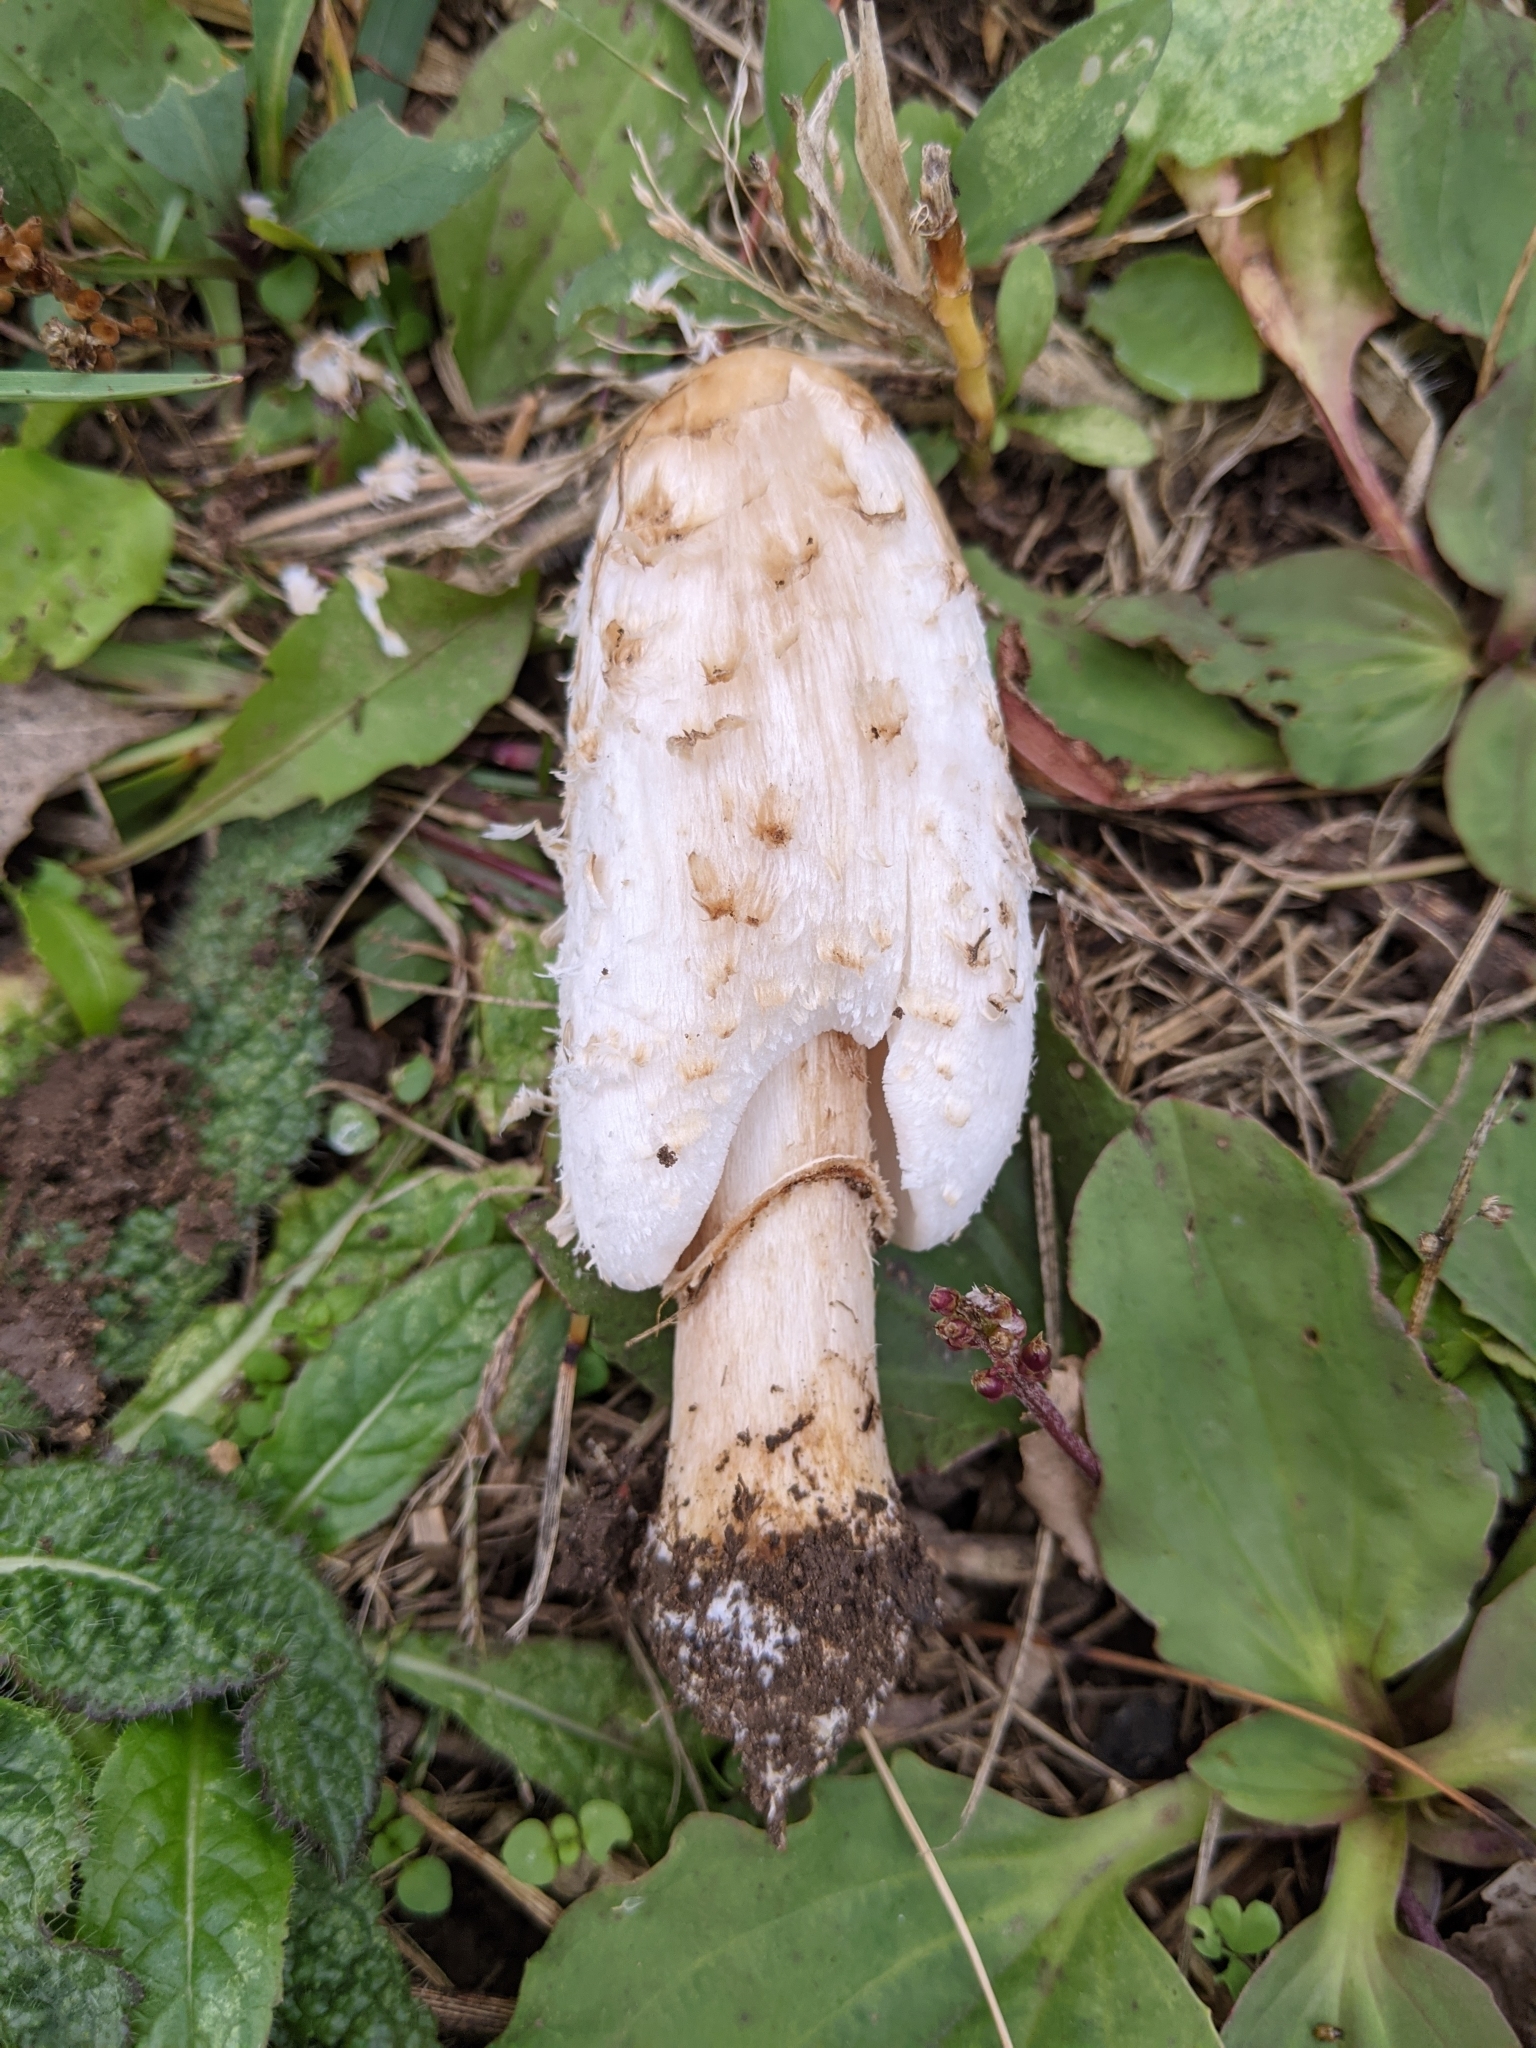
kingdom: Fungi
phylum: Basidiomycota
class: Agaricomycetes
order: Agaricales
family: Agaricaceae
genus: Coprinus
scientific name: Coprinus comatus
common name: Lawyer's wig
